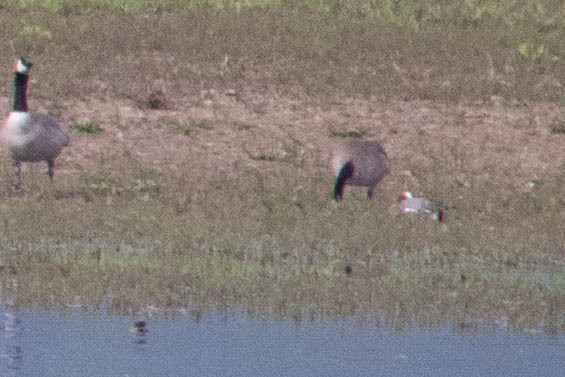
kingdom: Animalia
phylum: Chordata
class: Aves
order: Anseriformes
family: Anatidae
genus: Mareca
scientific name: Mareca penelope
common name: Eurasian wigeon
